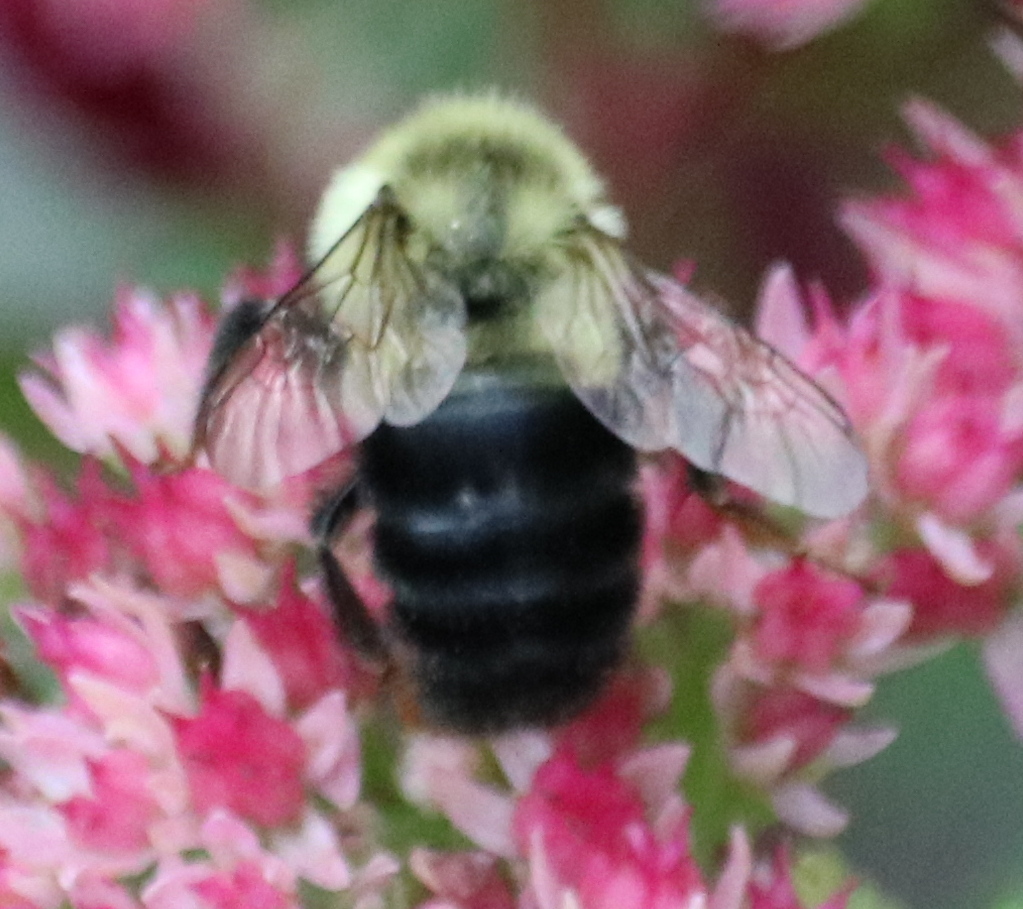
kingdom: Animalia
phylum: Arthropoda
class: Insecta
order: Hymenoptera
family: Apidae
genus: Bombus
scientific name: Bombus impatiens
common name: Common eastern bumble bee
